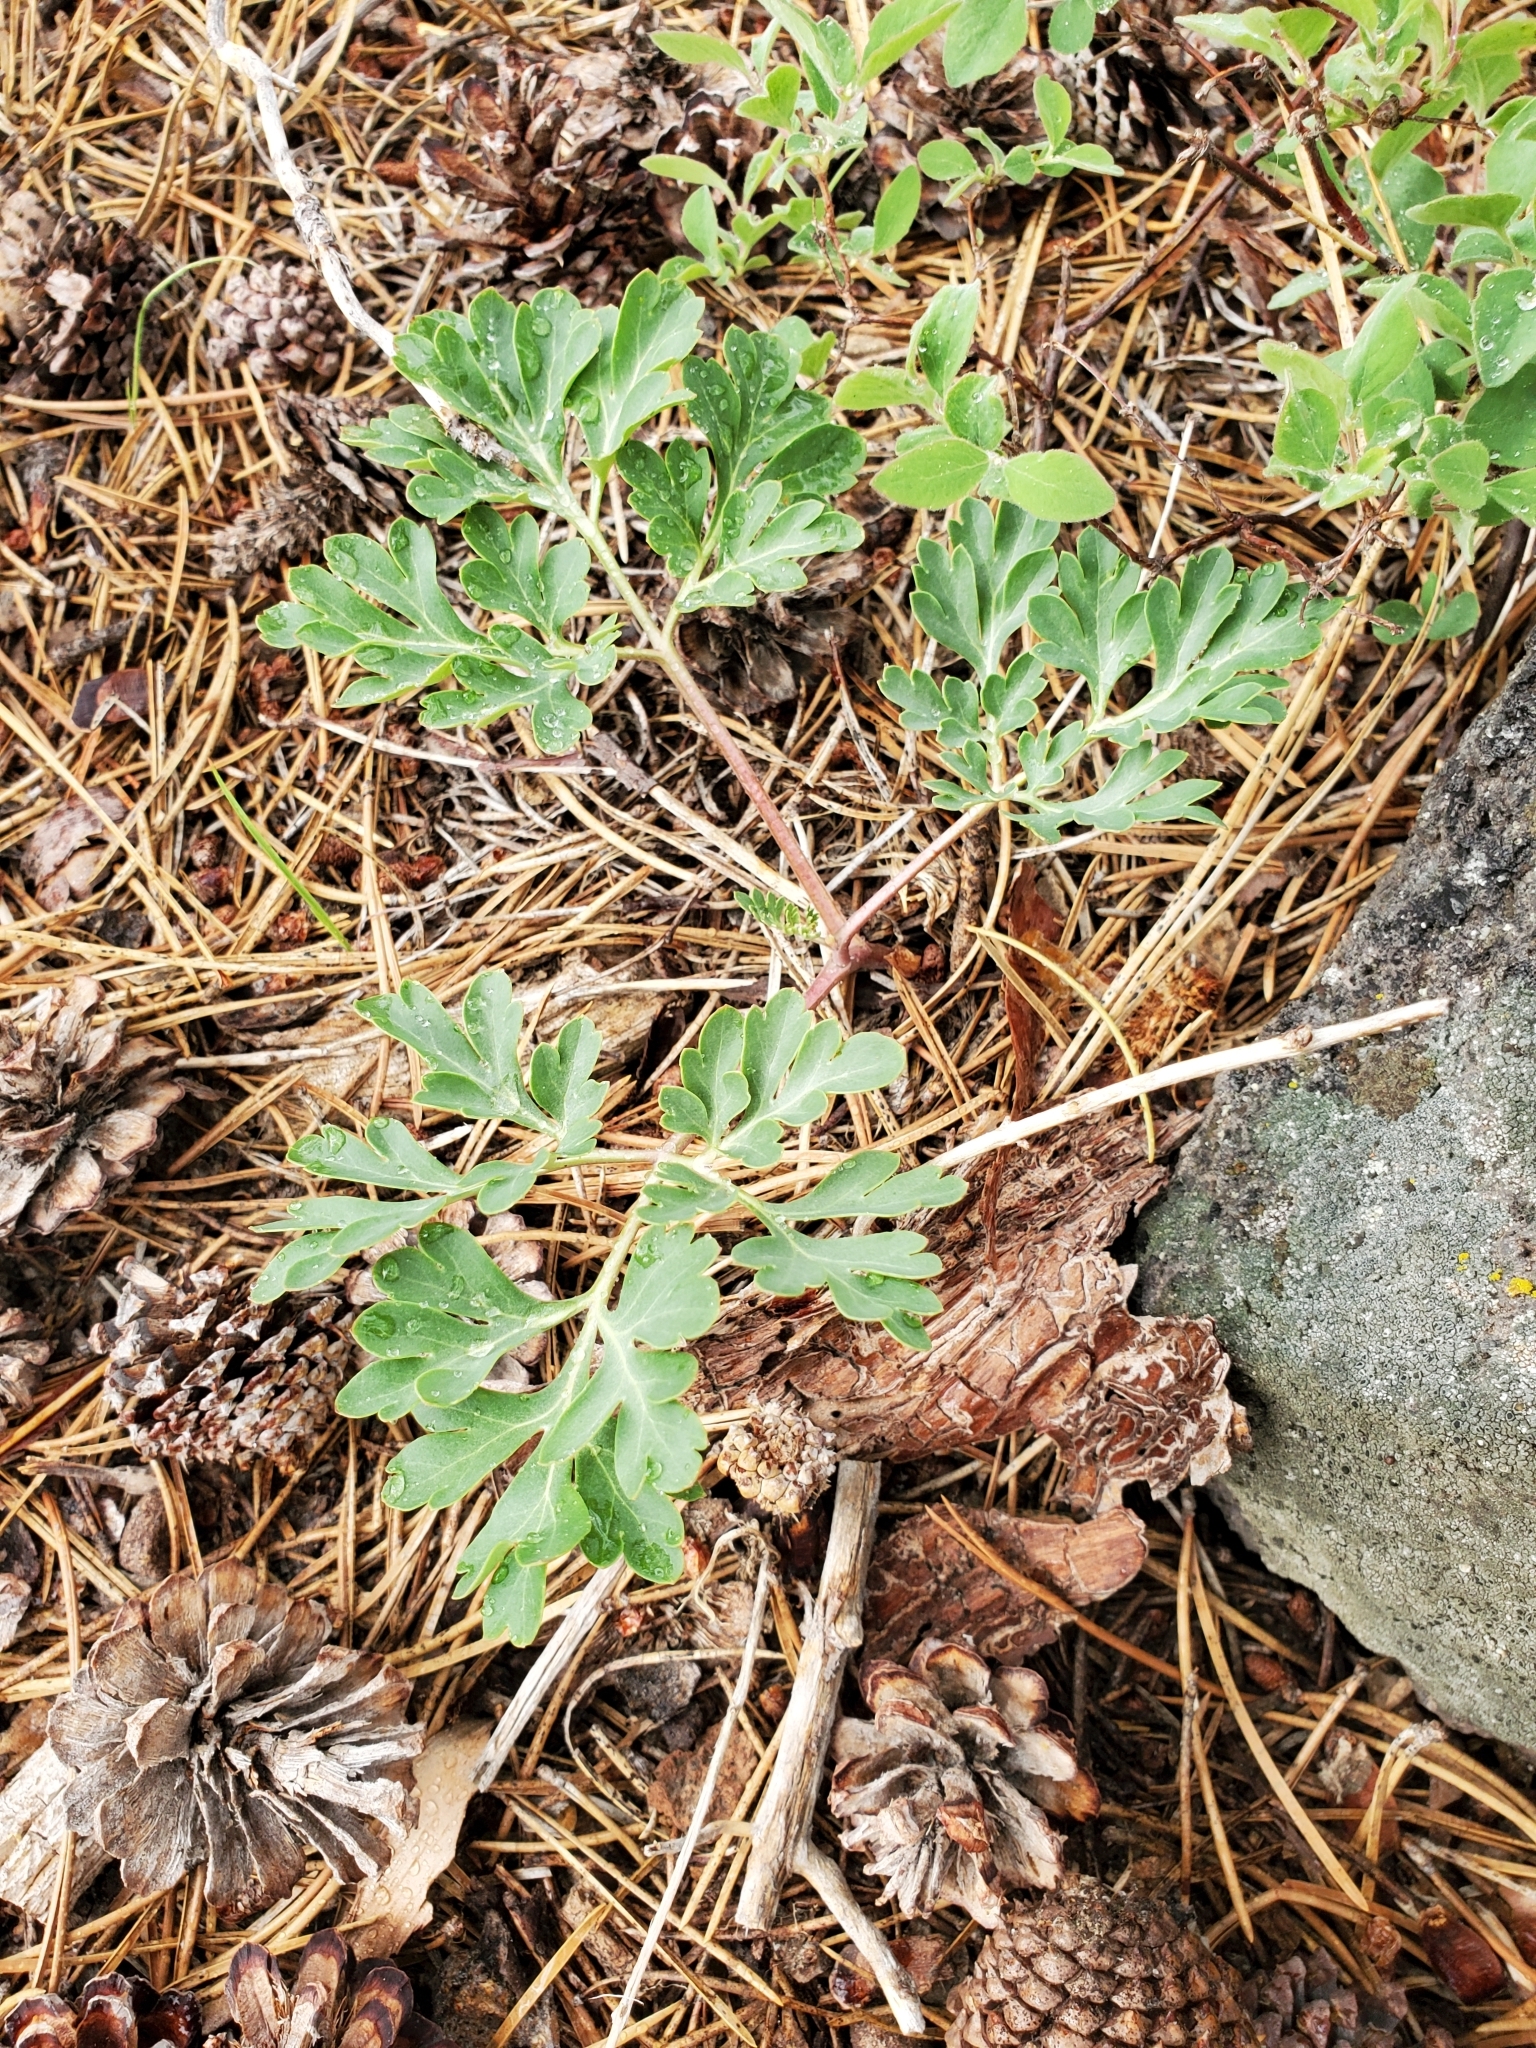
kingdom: Plantae
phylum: Tracheophyta
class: Magnoliopsida
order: Saxifragales
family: Paeoniaceae
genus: Paeonia
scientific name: Paeonia brownii
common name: Brown's peony
